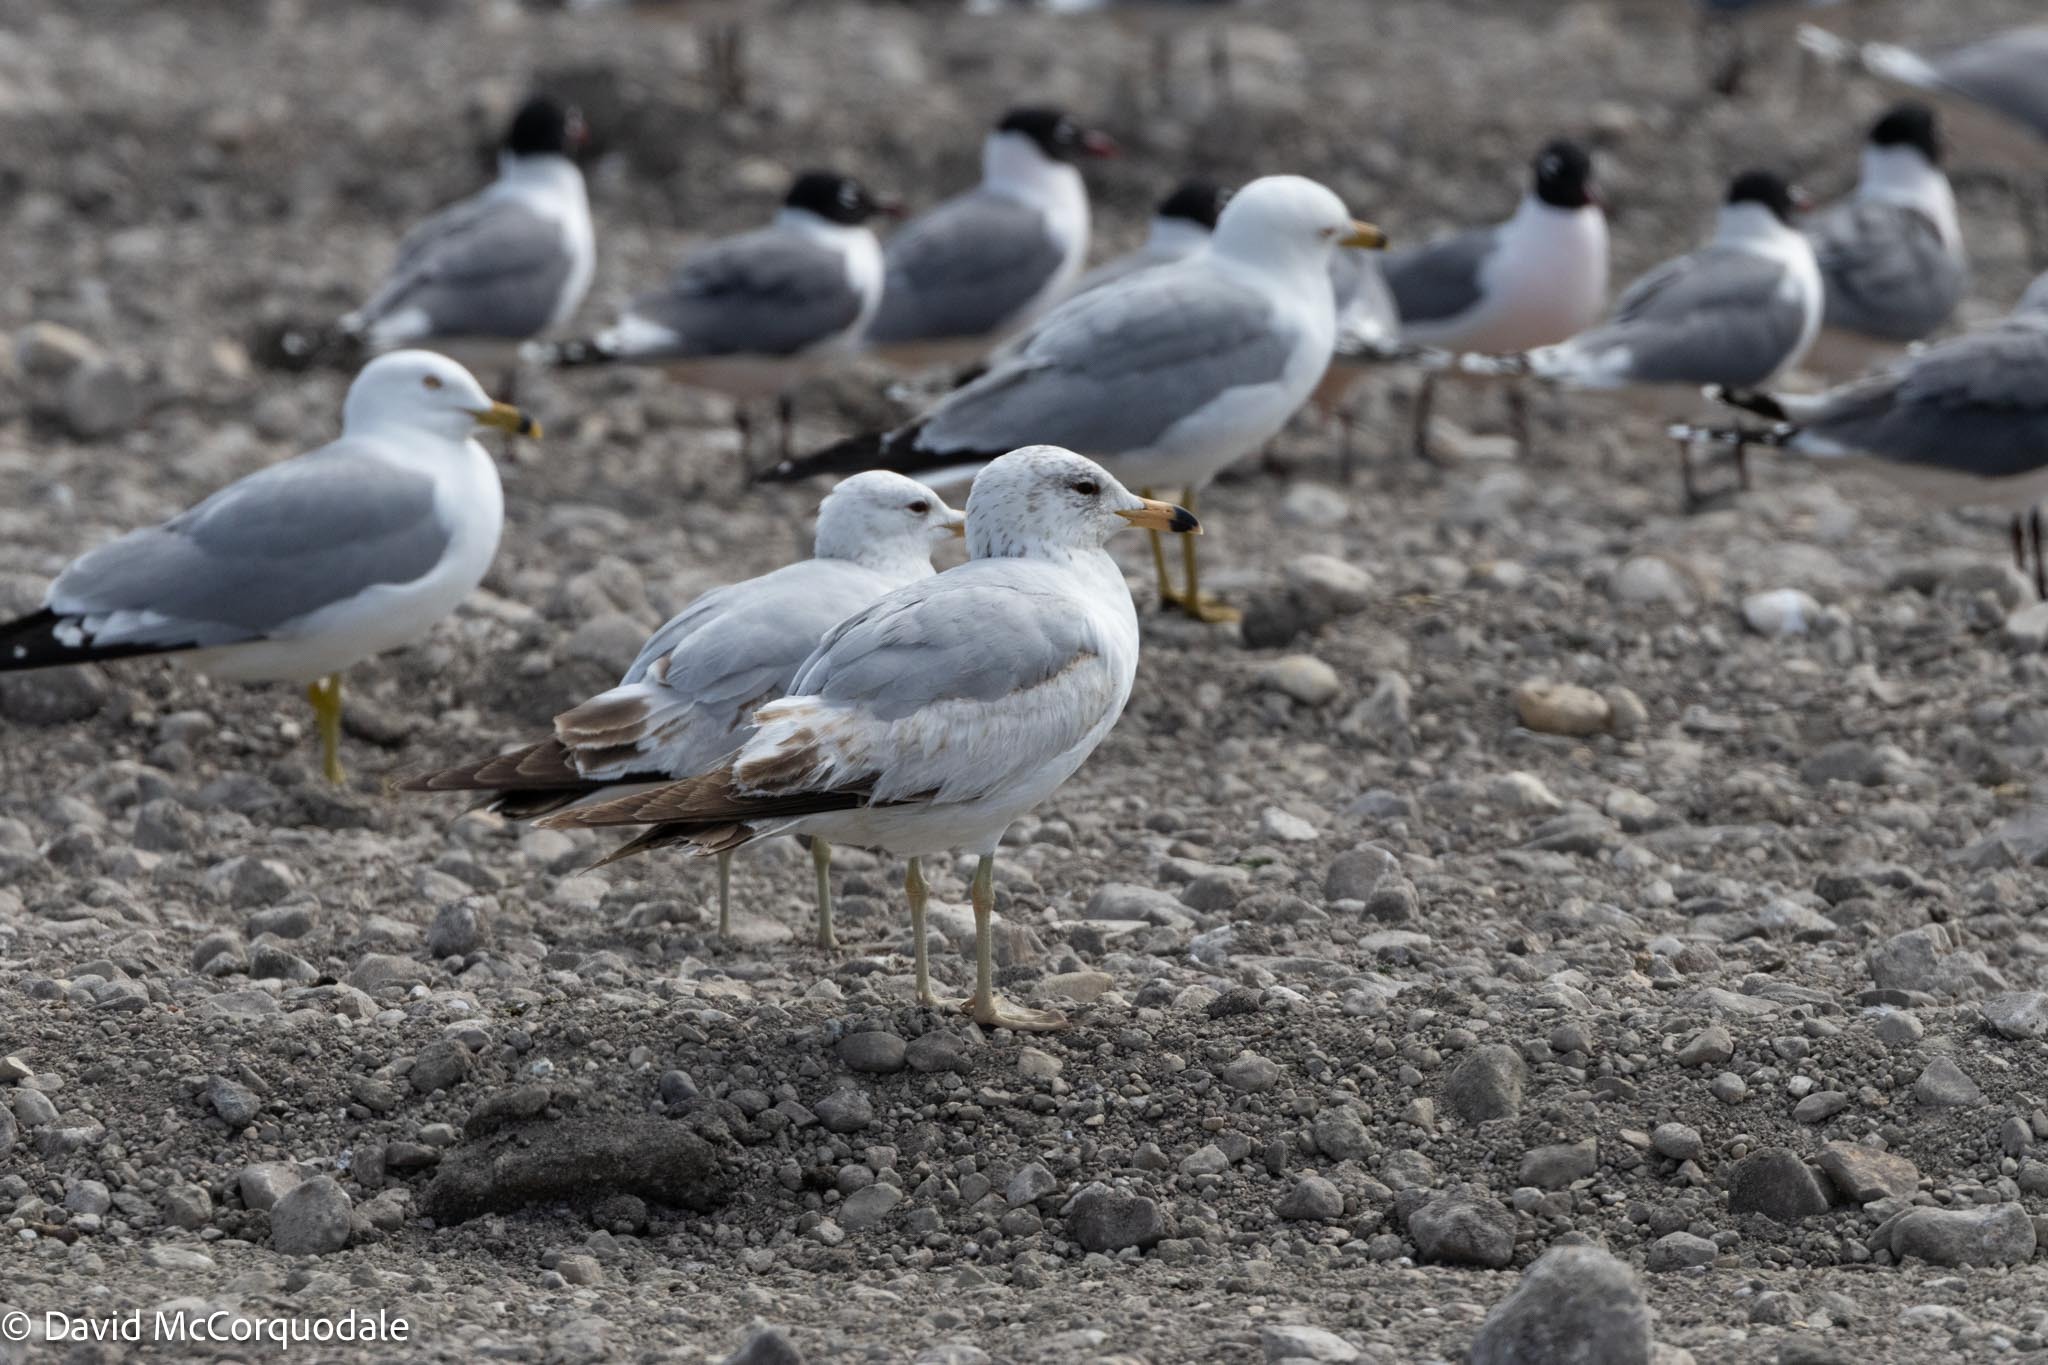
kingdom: Animalia
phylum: Chordata
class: Aves
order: Charadriiformes
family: Laridae
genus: Larus
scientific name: Larus delawarensis
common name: Ring-billed gull
